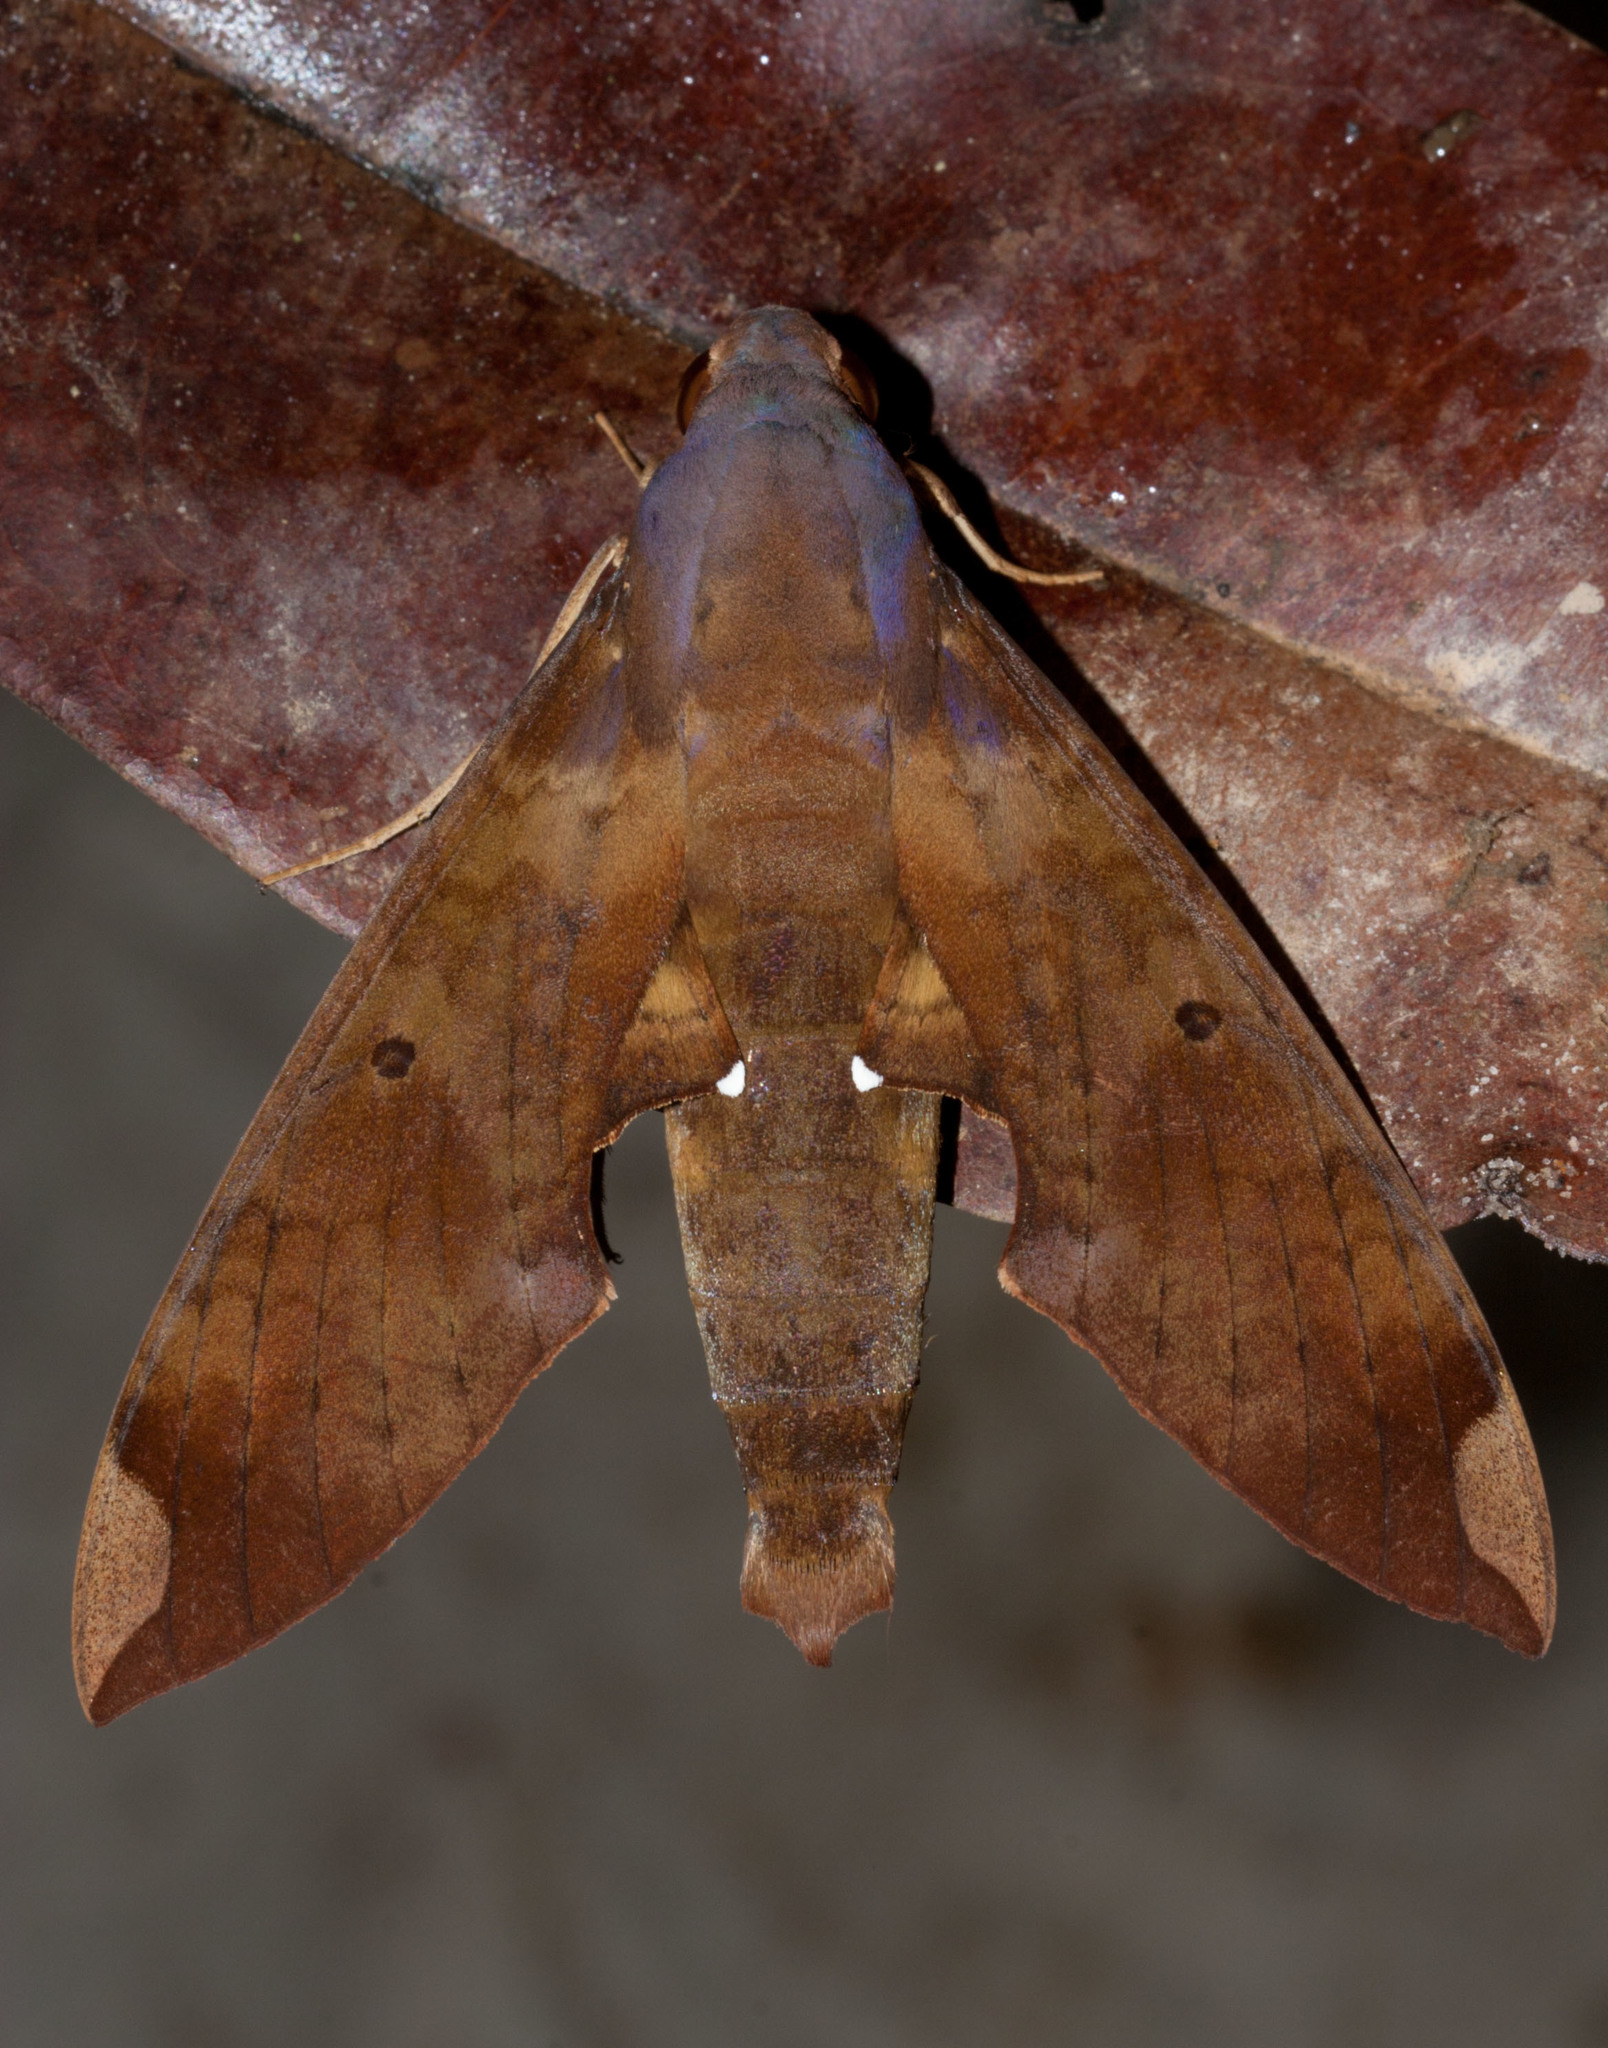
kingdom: Animalia
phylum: Arthropoda
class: Insecta
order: Lepidoptera
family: Sphingidae
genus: Pachylia
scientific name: Pachylia ficus
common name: Fig sphinx
